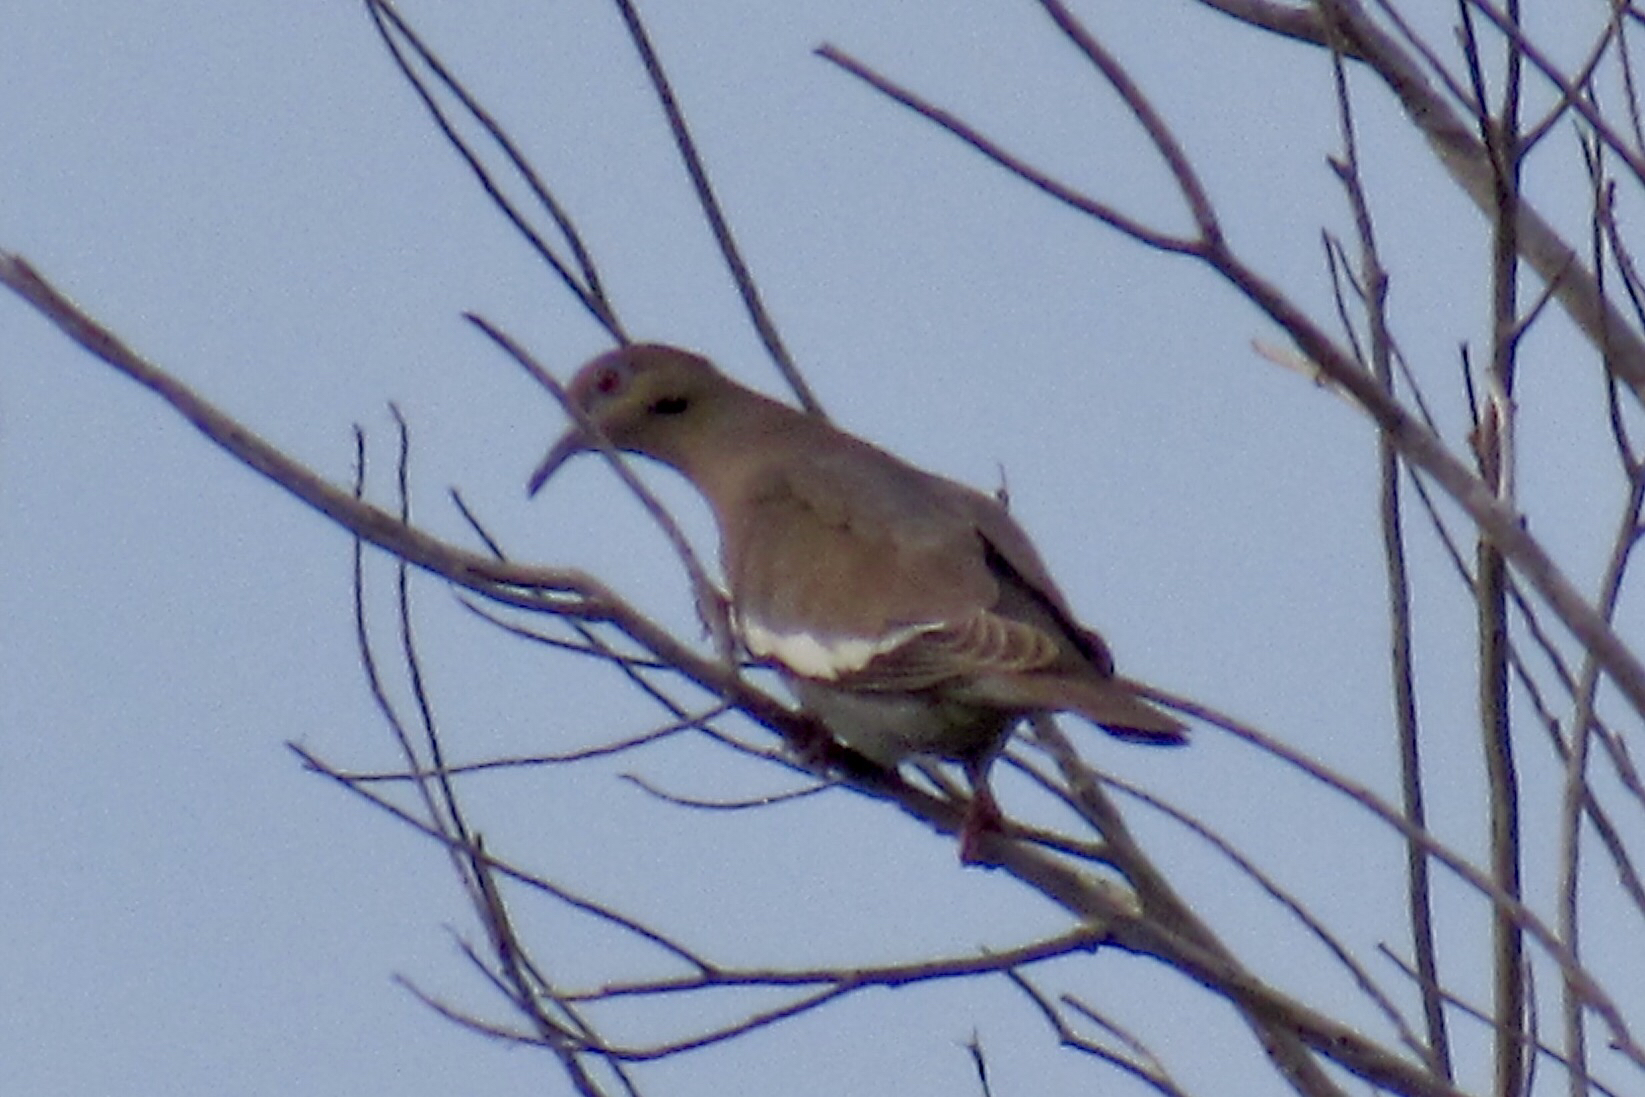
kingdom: Animalia
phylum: Chordata
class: Aves
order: Columbiformes
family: Columbidae
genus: Zenaida
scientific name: Zenaida asiatica
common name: White-winged dove
